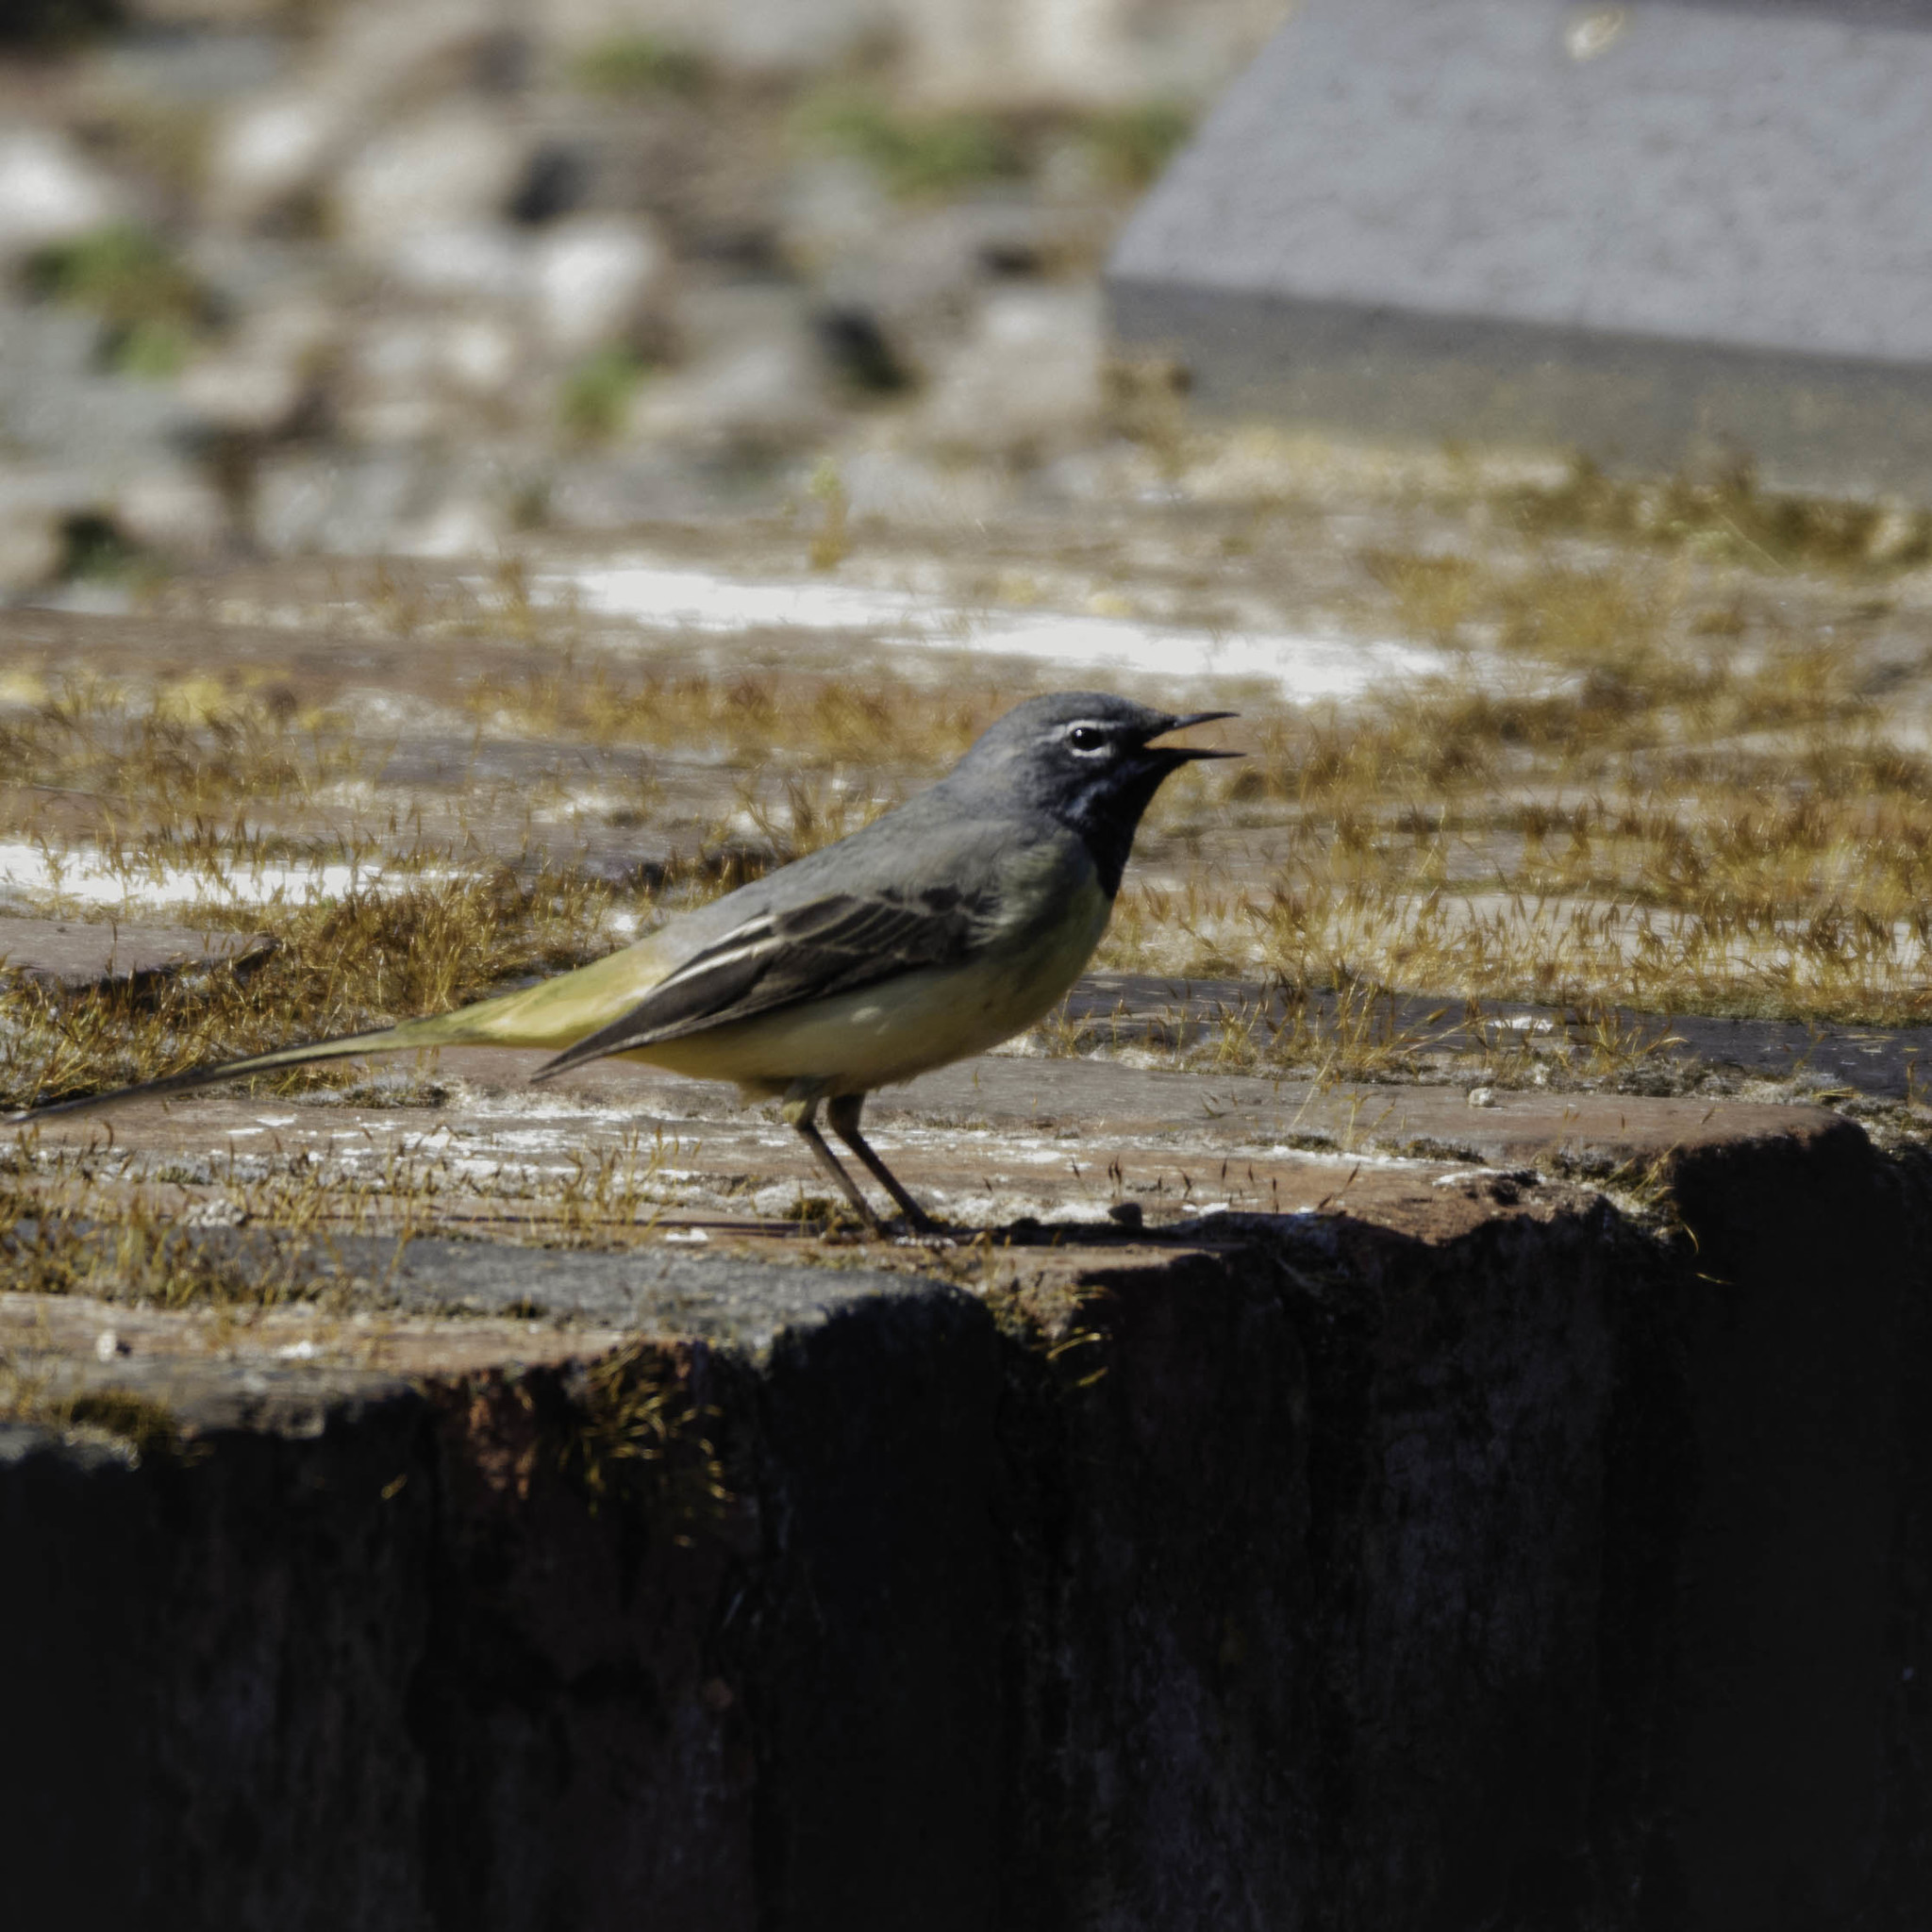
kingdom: Animalia
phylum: Chordata
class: Aves
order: Passeriformes
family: Motacillidae
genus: Motacilla
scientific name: Motacilla cinerea
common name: Grey wagtail
